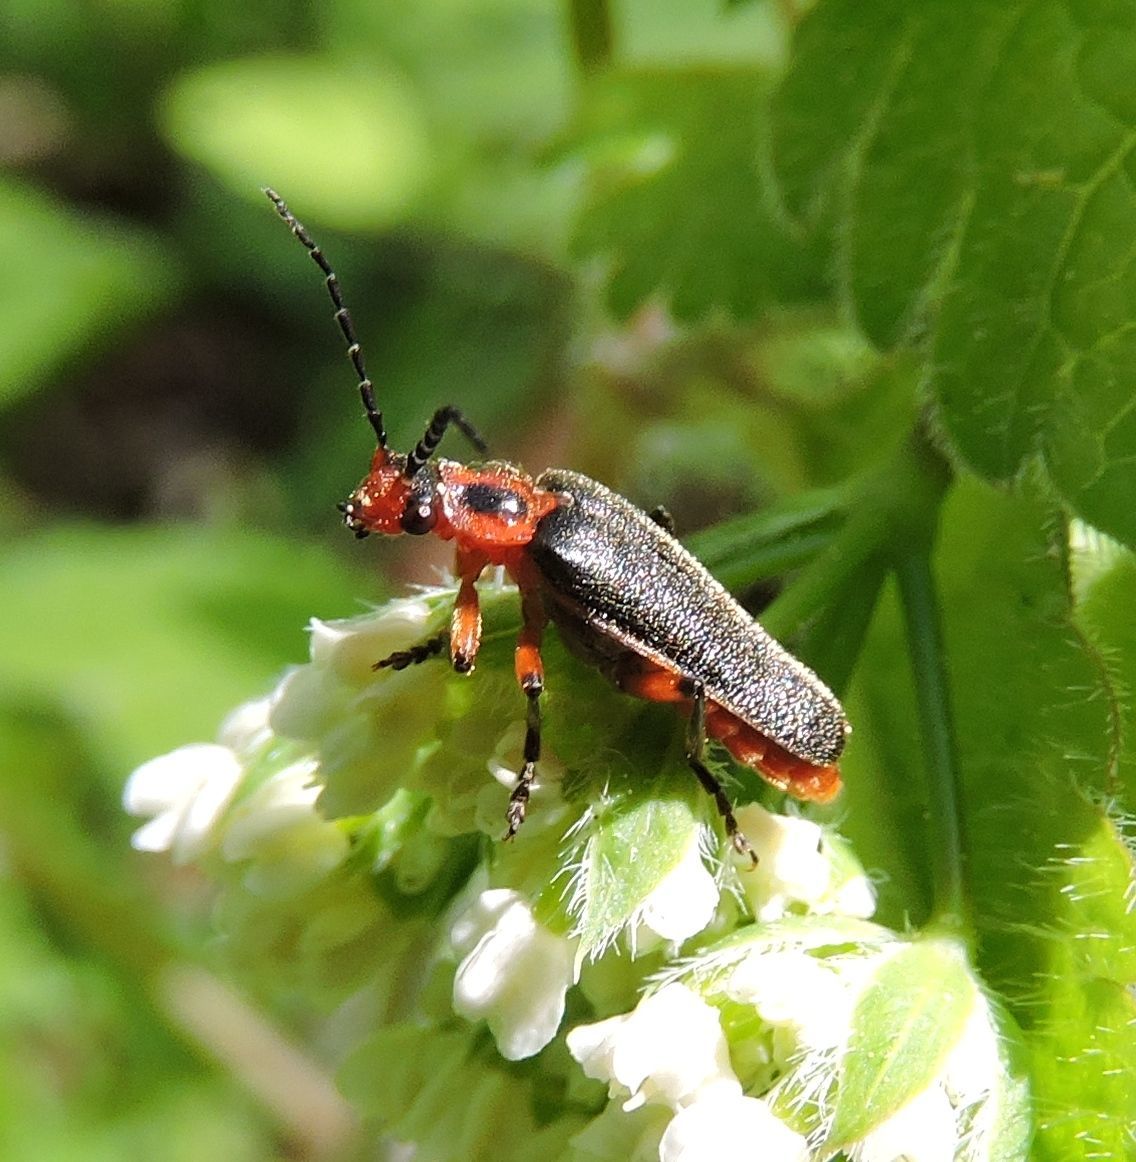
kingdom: Animalia
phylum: Arthropoda
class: Insecta
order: Coleoptera
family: Cantharidae
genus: Atalantycha
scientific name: Atalantycha bilineata
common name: Two-lined leatherwing
